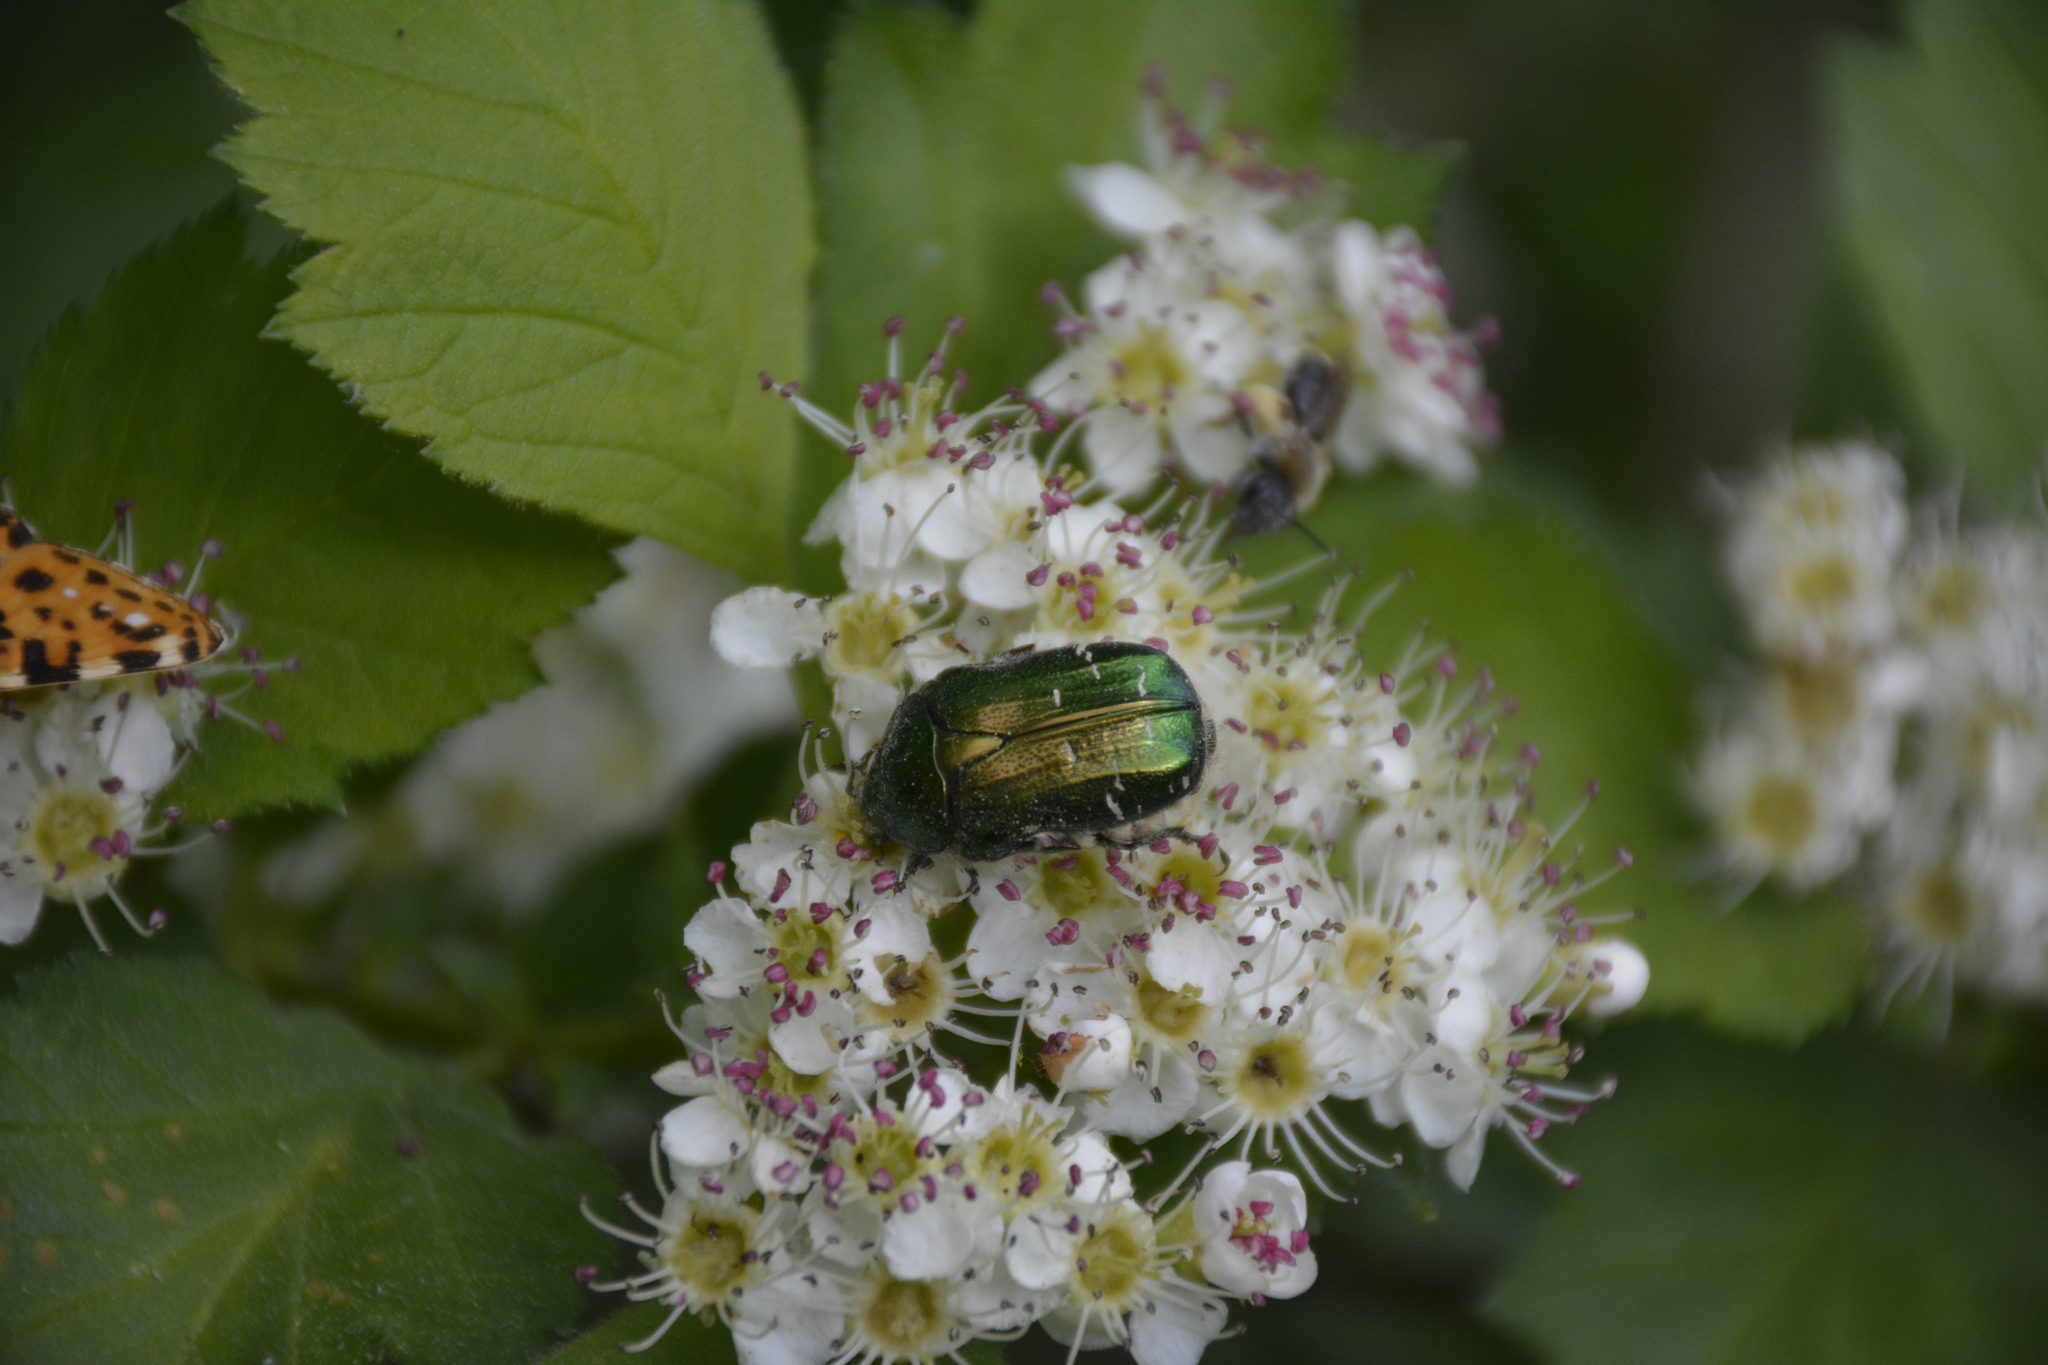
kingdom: Animalia
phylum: Arthropoda
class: Insecta
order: Coleoptera
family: Scarabaeidae
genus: Cetonia
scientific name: Cetonia aurata
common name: Rose chafer
